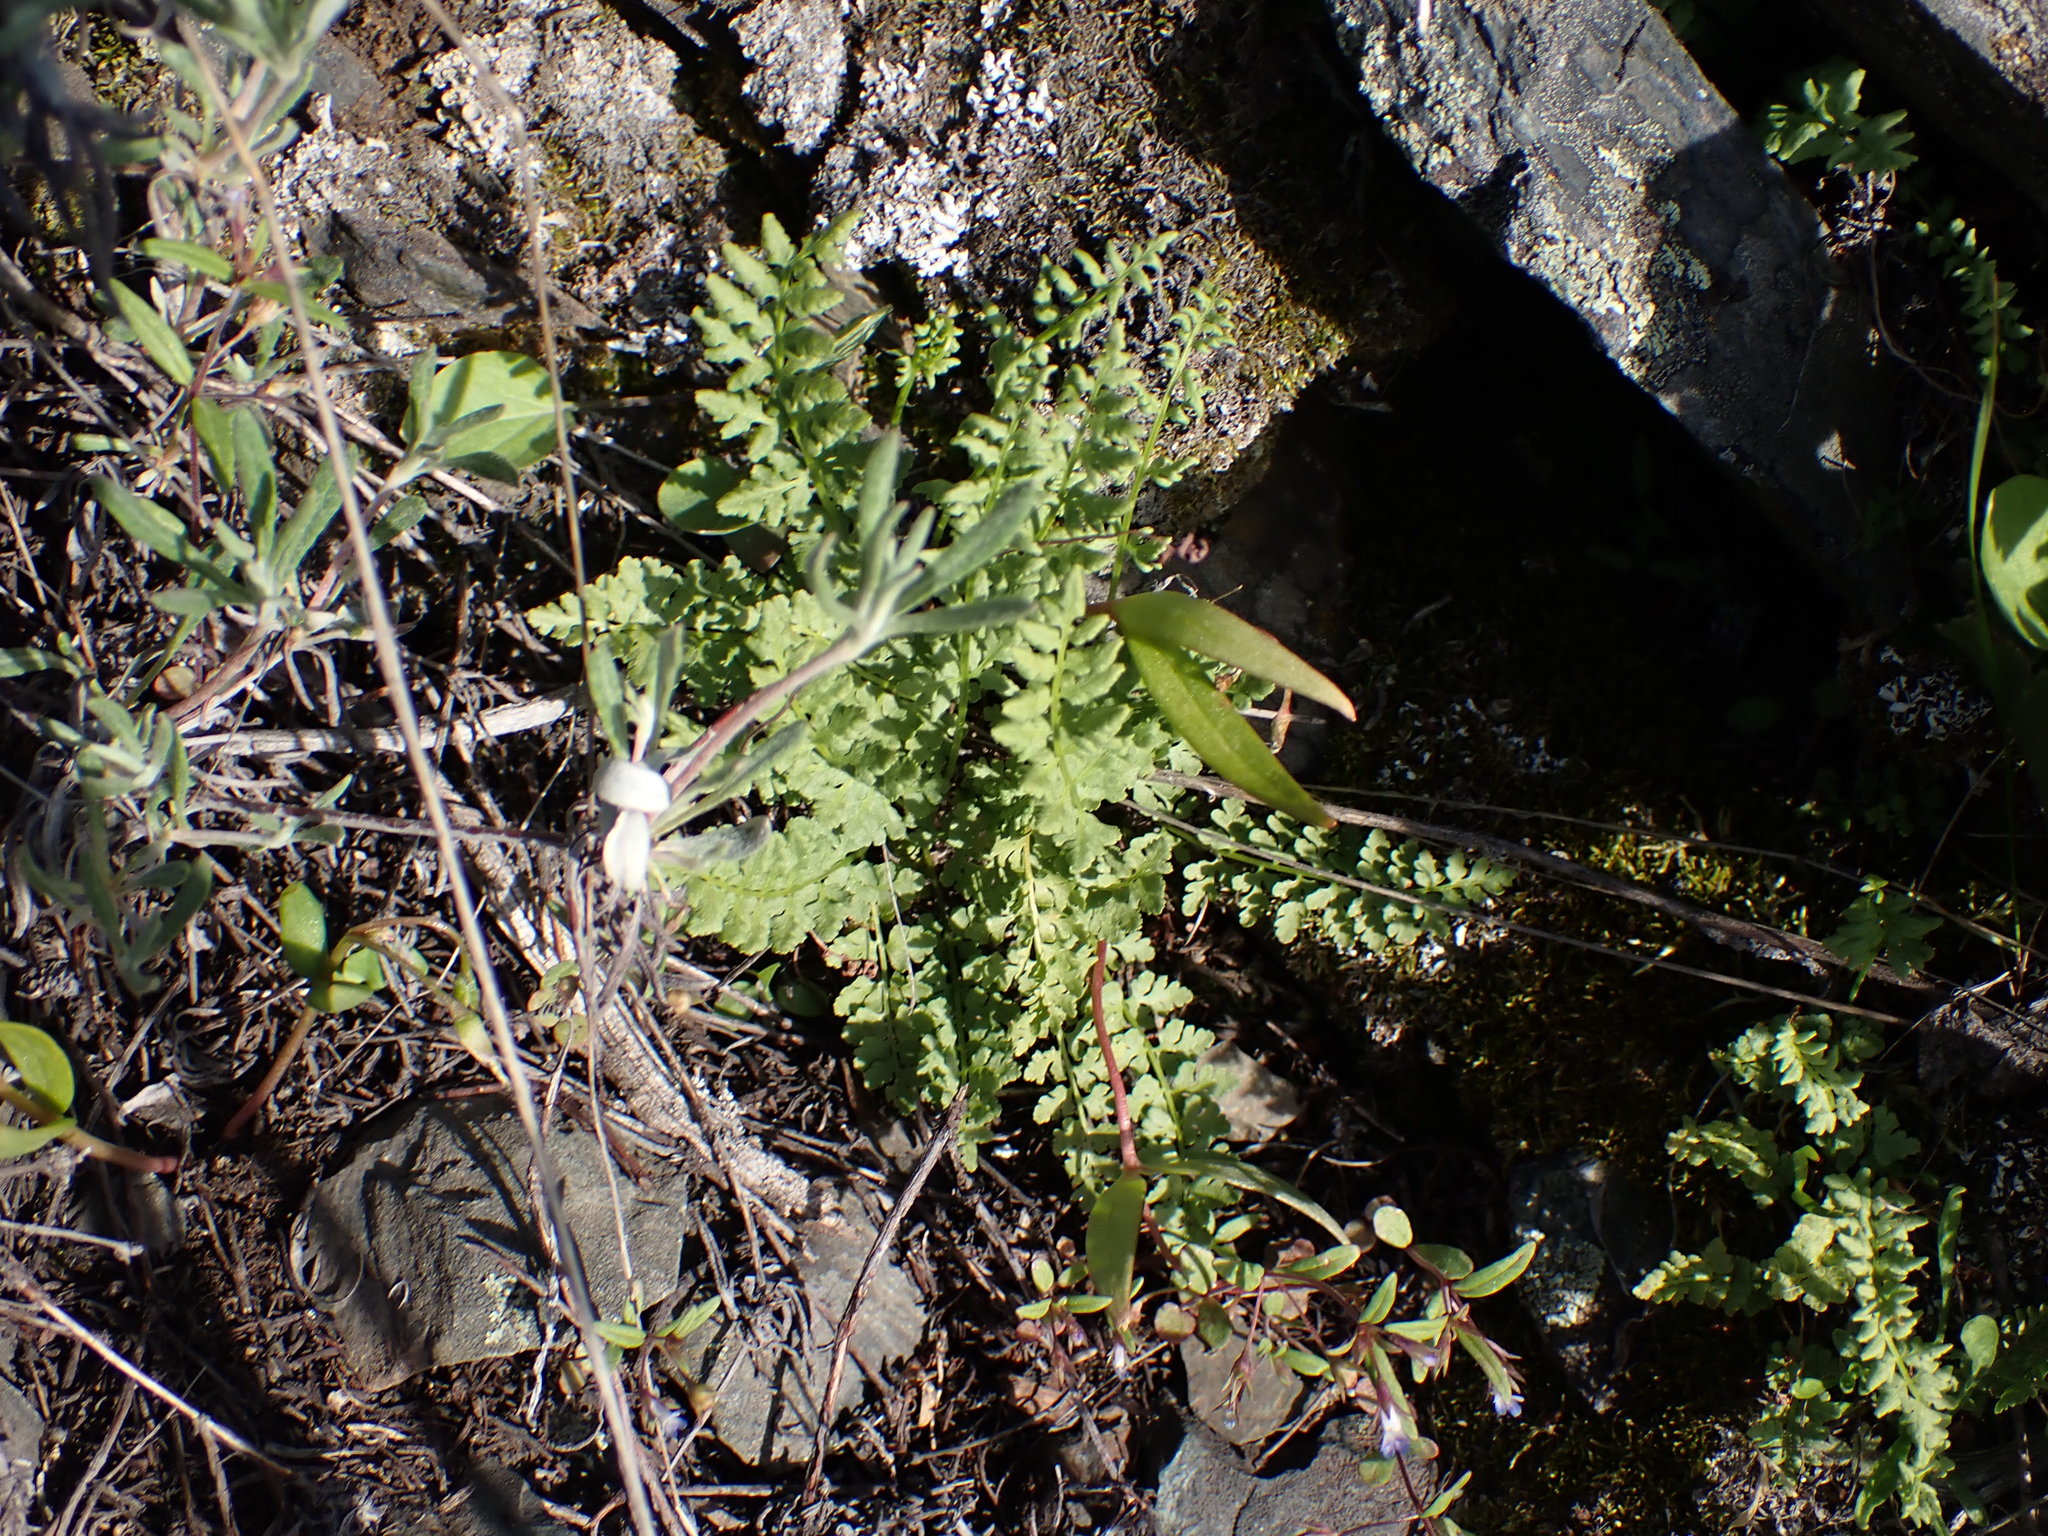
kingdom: Plantae
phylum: Tracheophyta
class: Polypodiopsida
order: Polypodiales
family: Woodsiaceae
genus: Physematium
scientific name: Physematium oreganum
